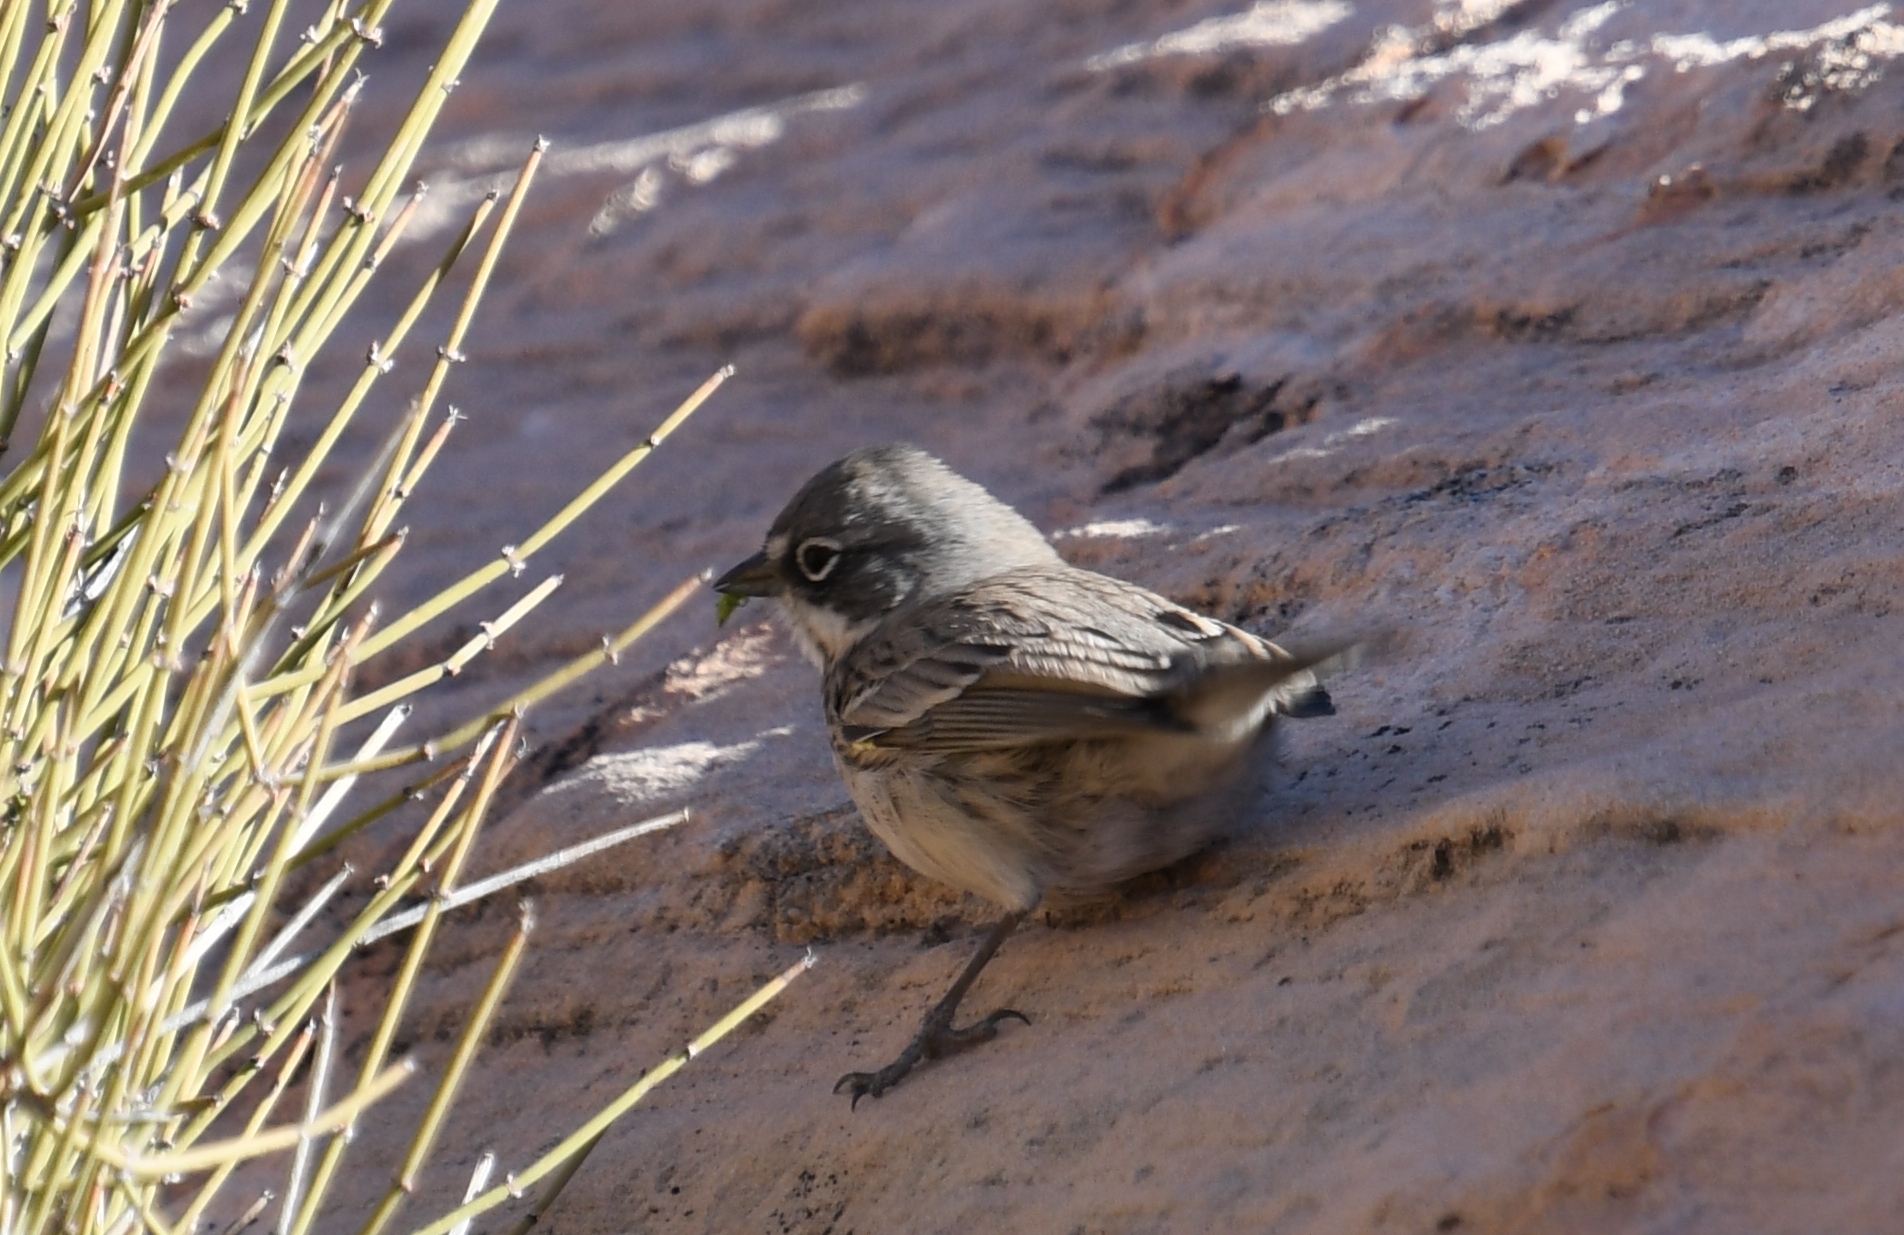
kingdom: Animalia
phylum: Chordata
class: Aves
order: Passeriformes
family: Passerellidae
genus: Artemisiospiza
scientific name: Artemisiospiza nevadensis
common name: Sagebrush sparrow
